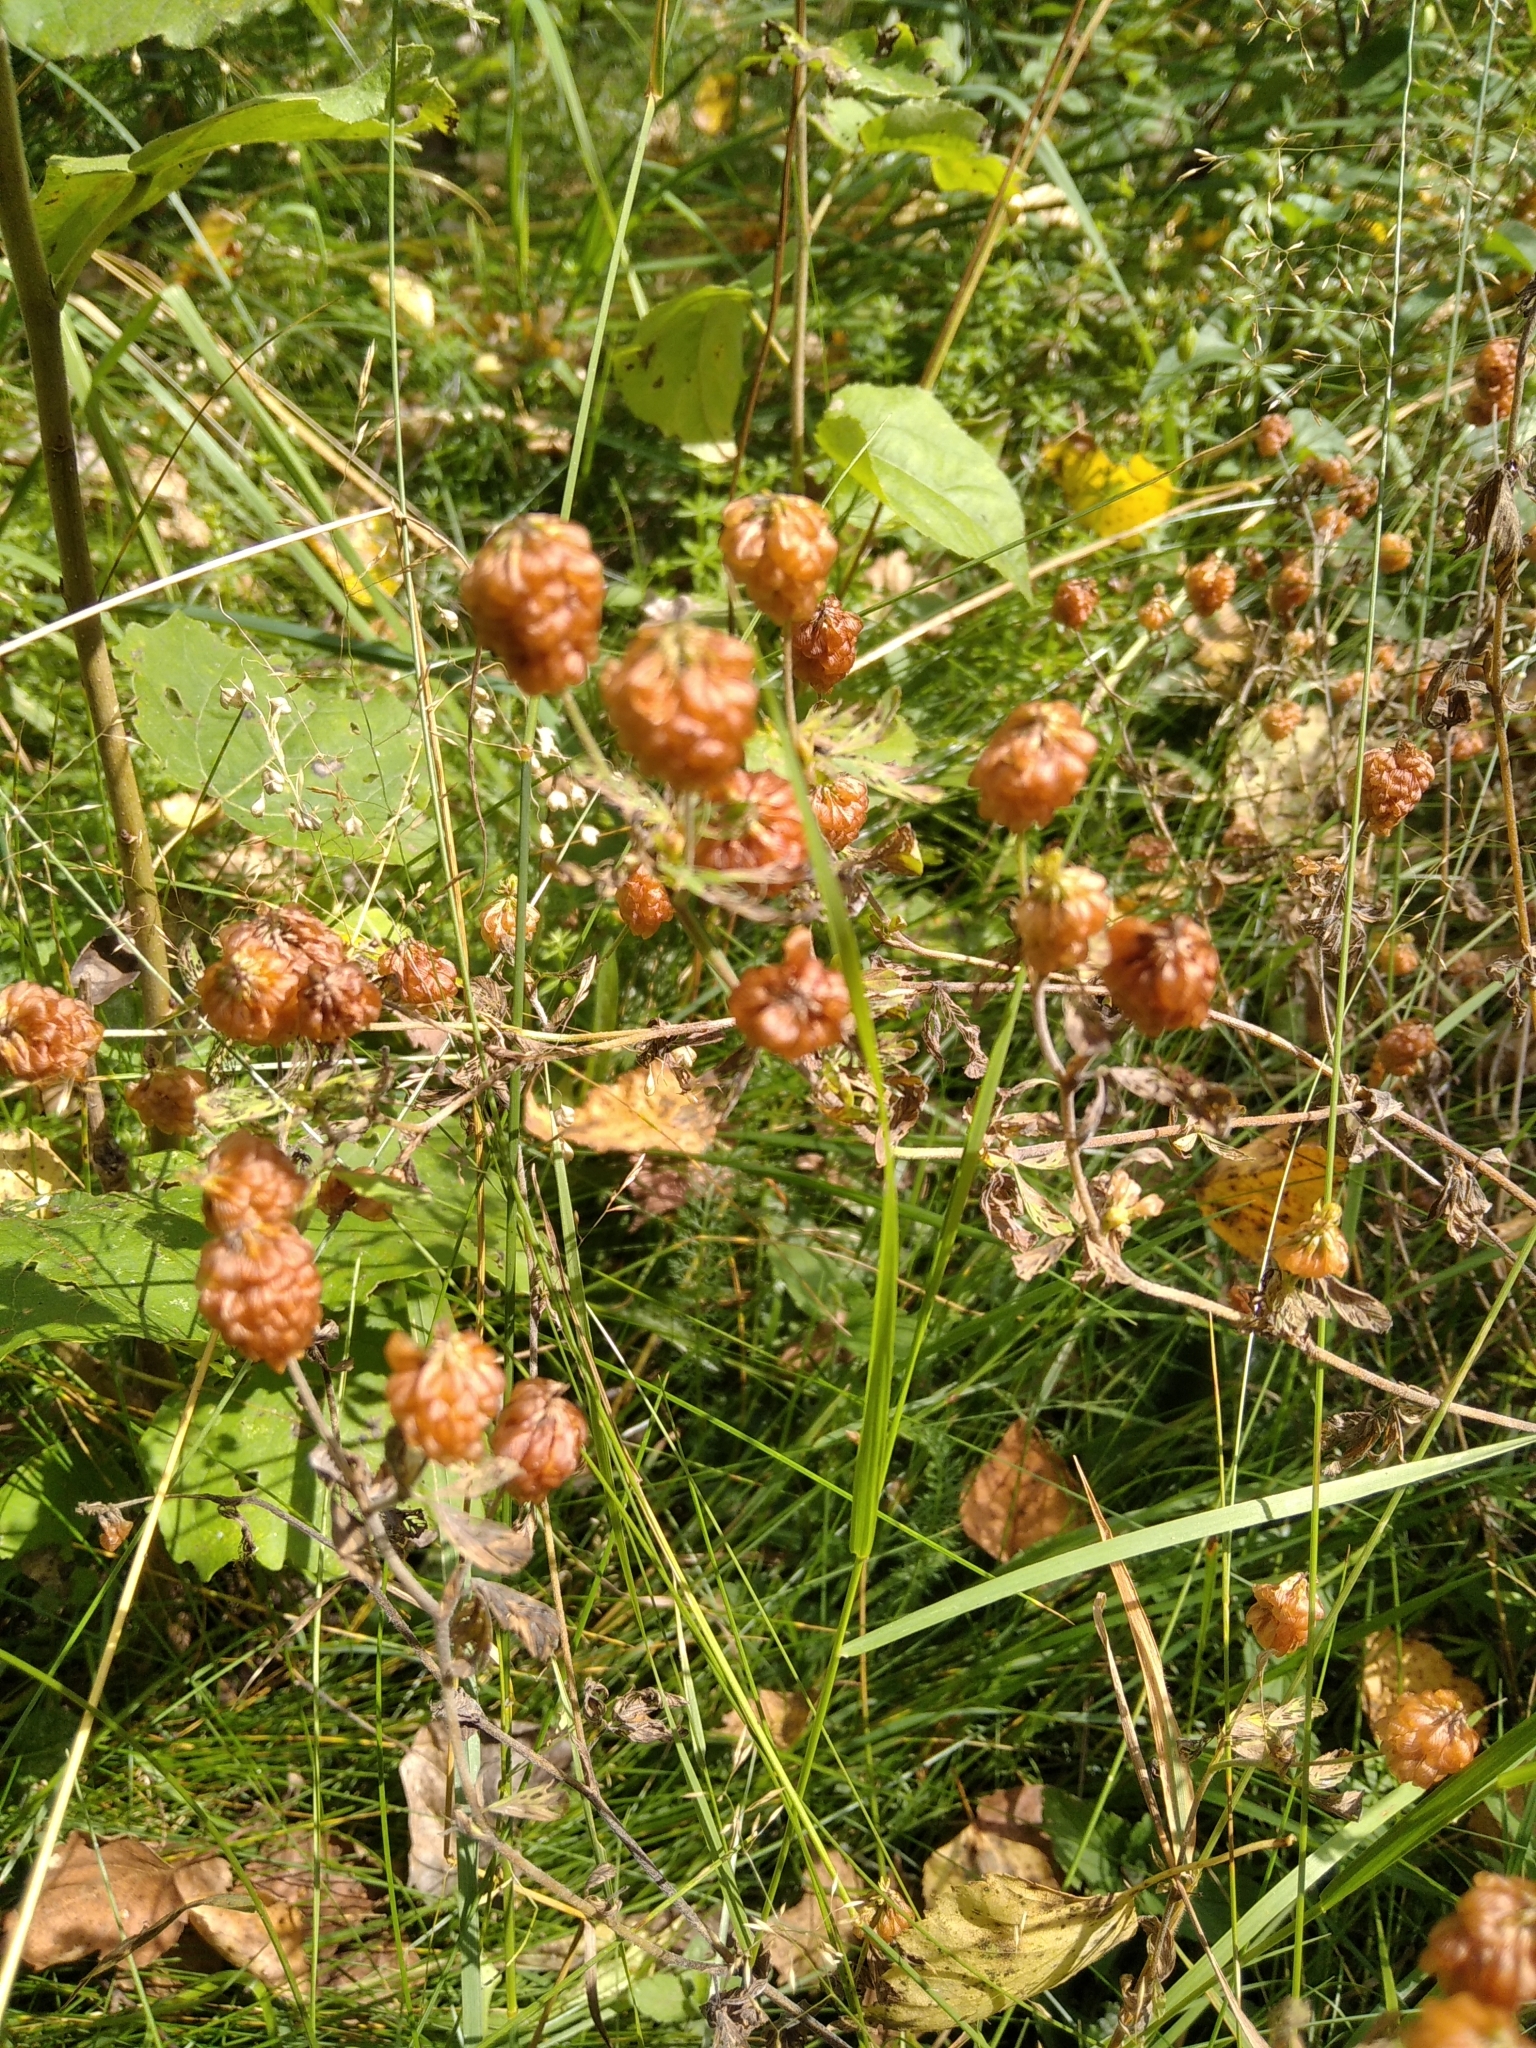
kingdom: Plantae
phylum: Tracheophyta
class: Magnoliopsida
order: Fabales
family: Fabaceae
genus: Trifolium
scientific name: Trifolium aureum
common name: Golden clover
